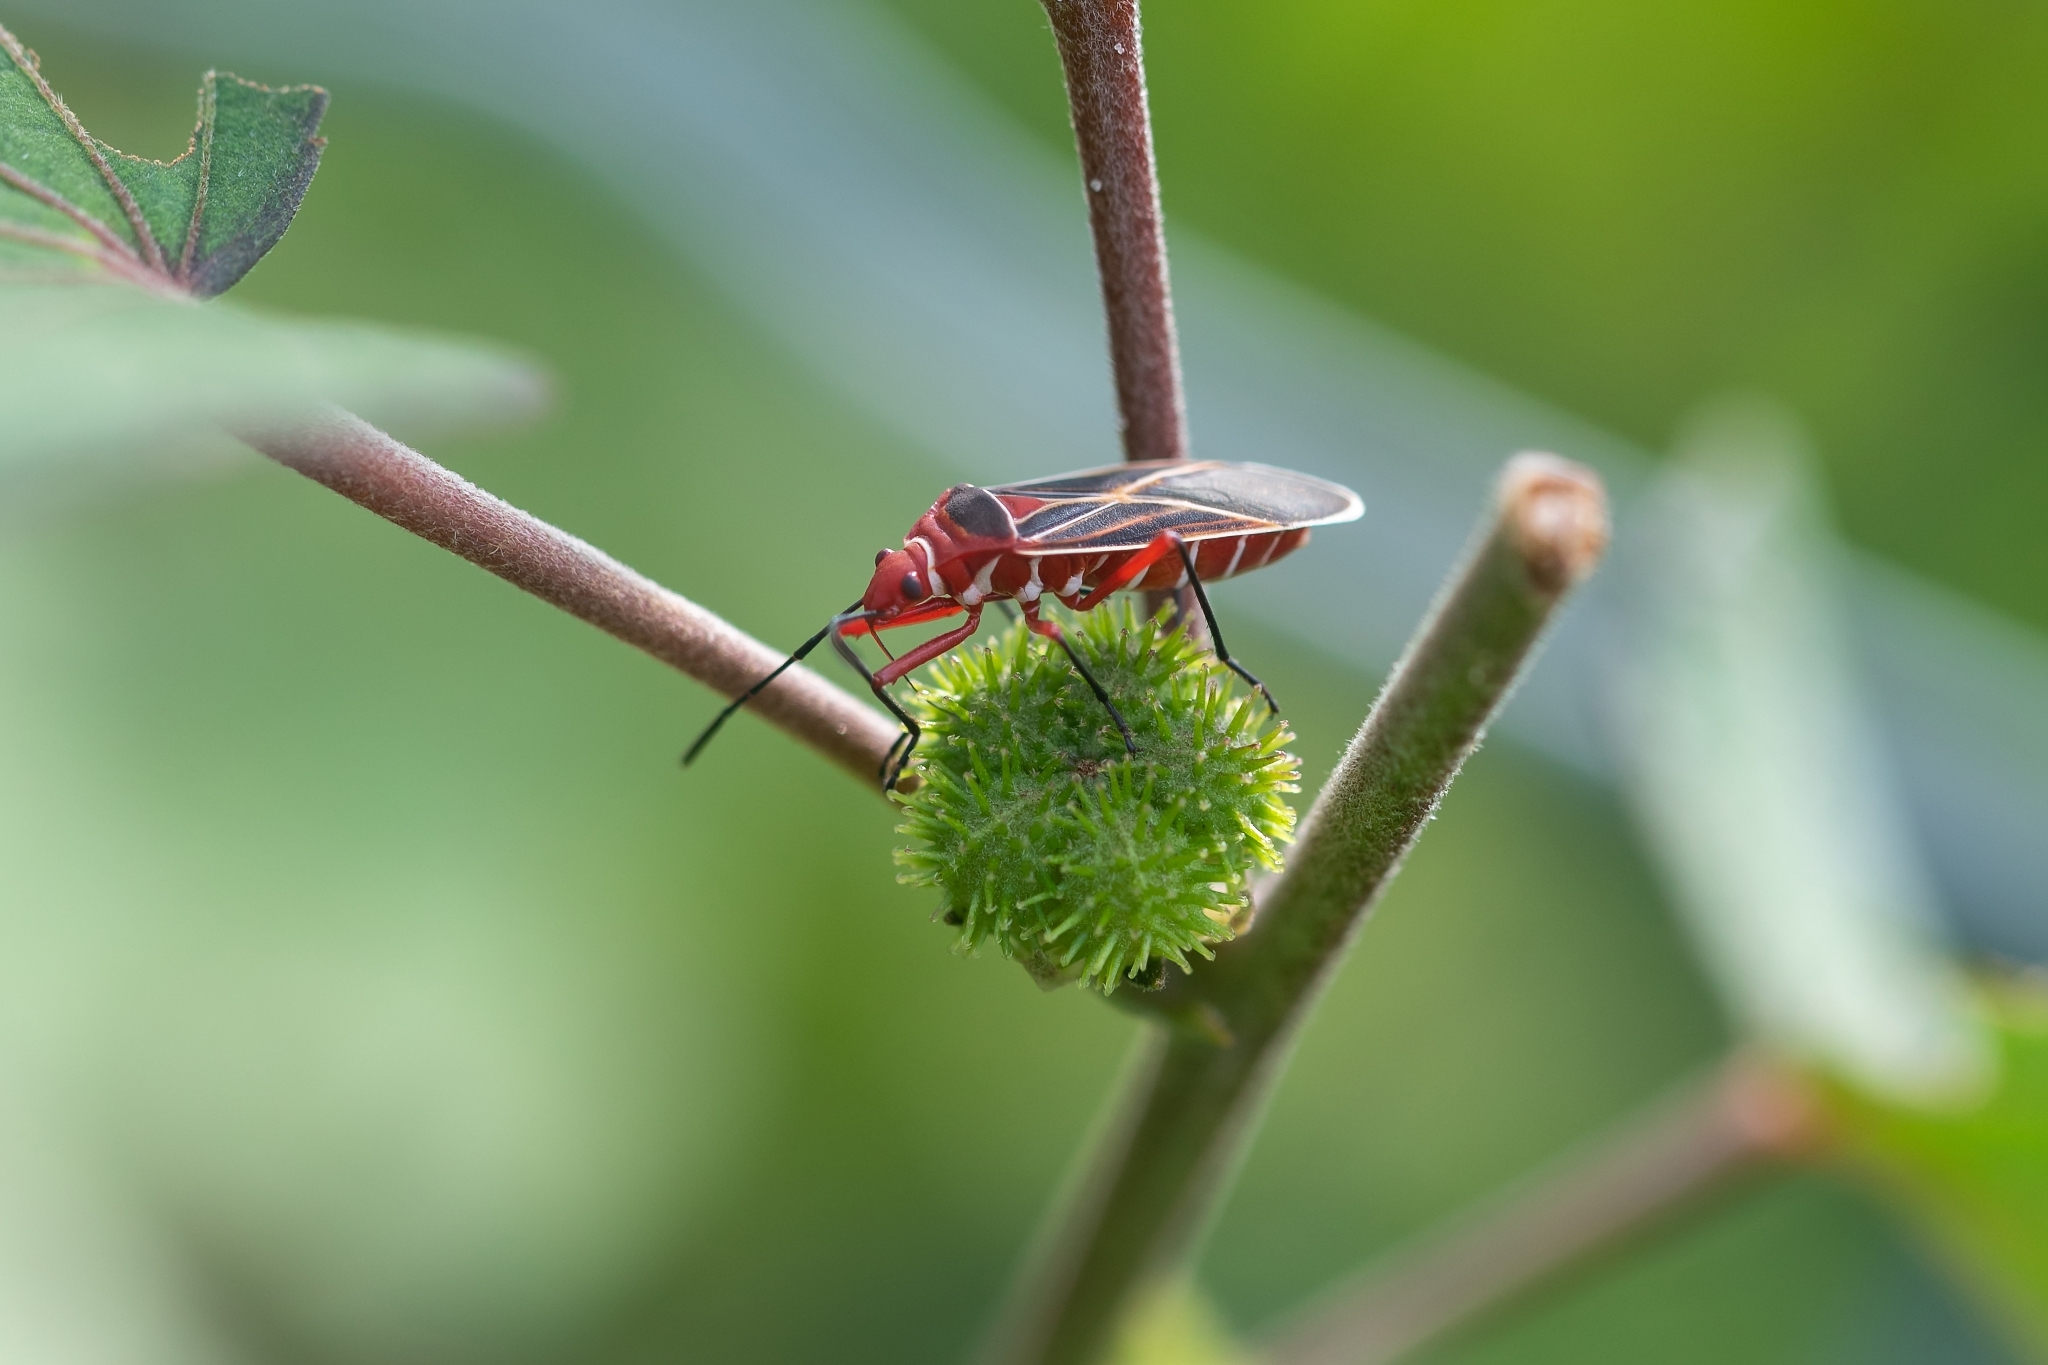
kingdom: Animalia
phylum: Arthropoda
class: Insecta
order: Hemiptera
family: Pyrrhocoridae
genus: Dysdercus
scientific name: Dysdercus suturellus
